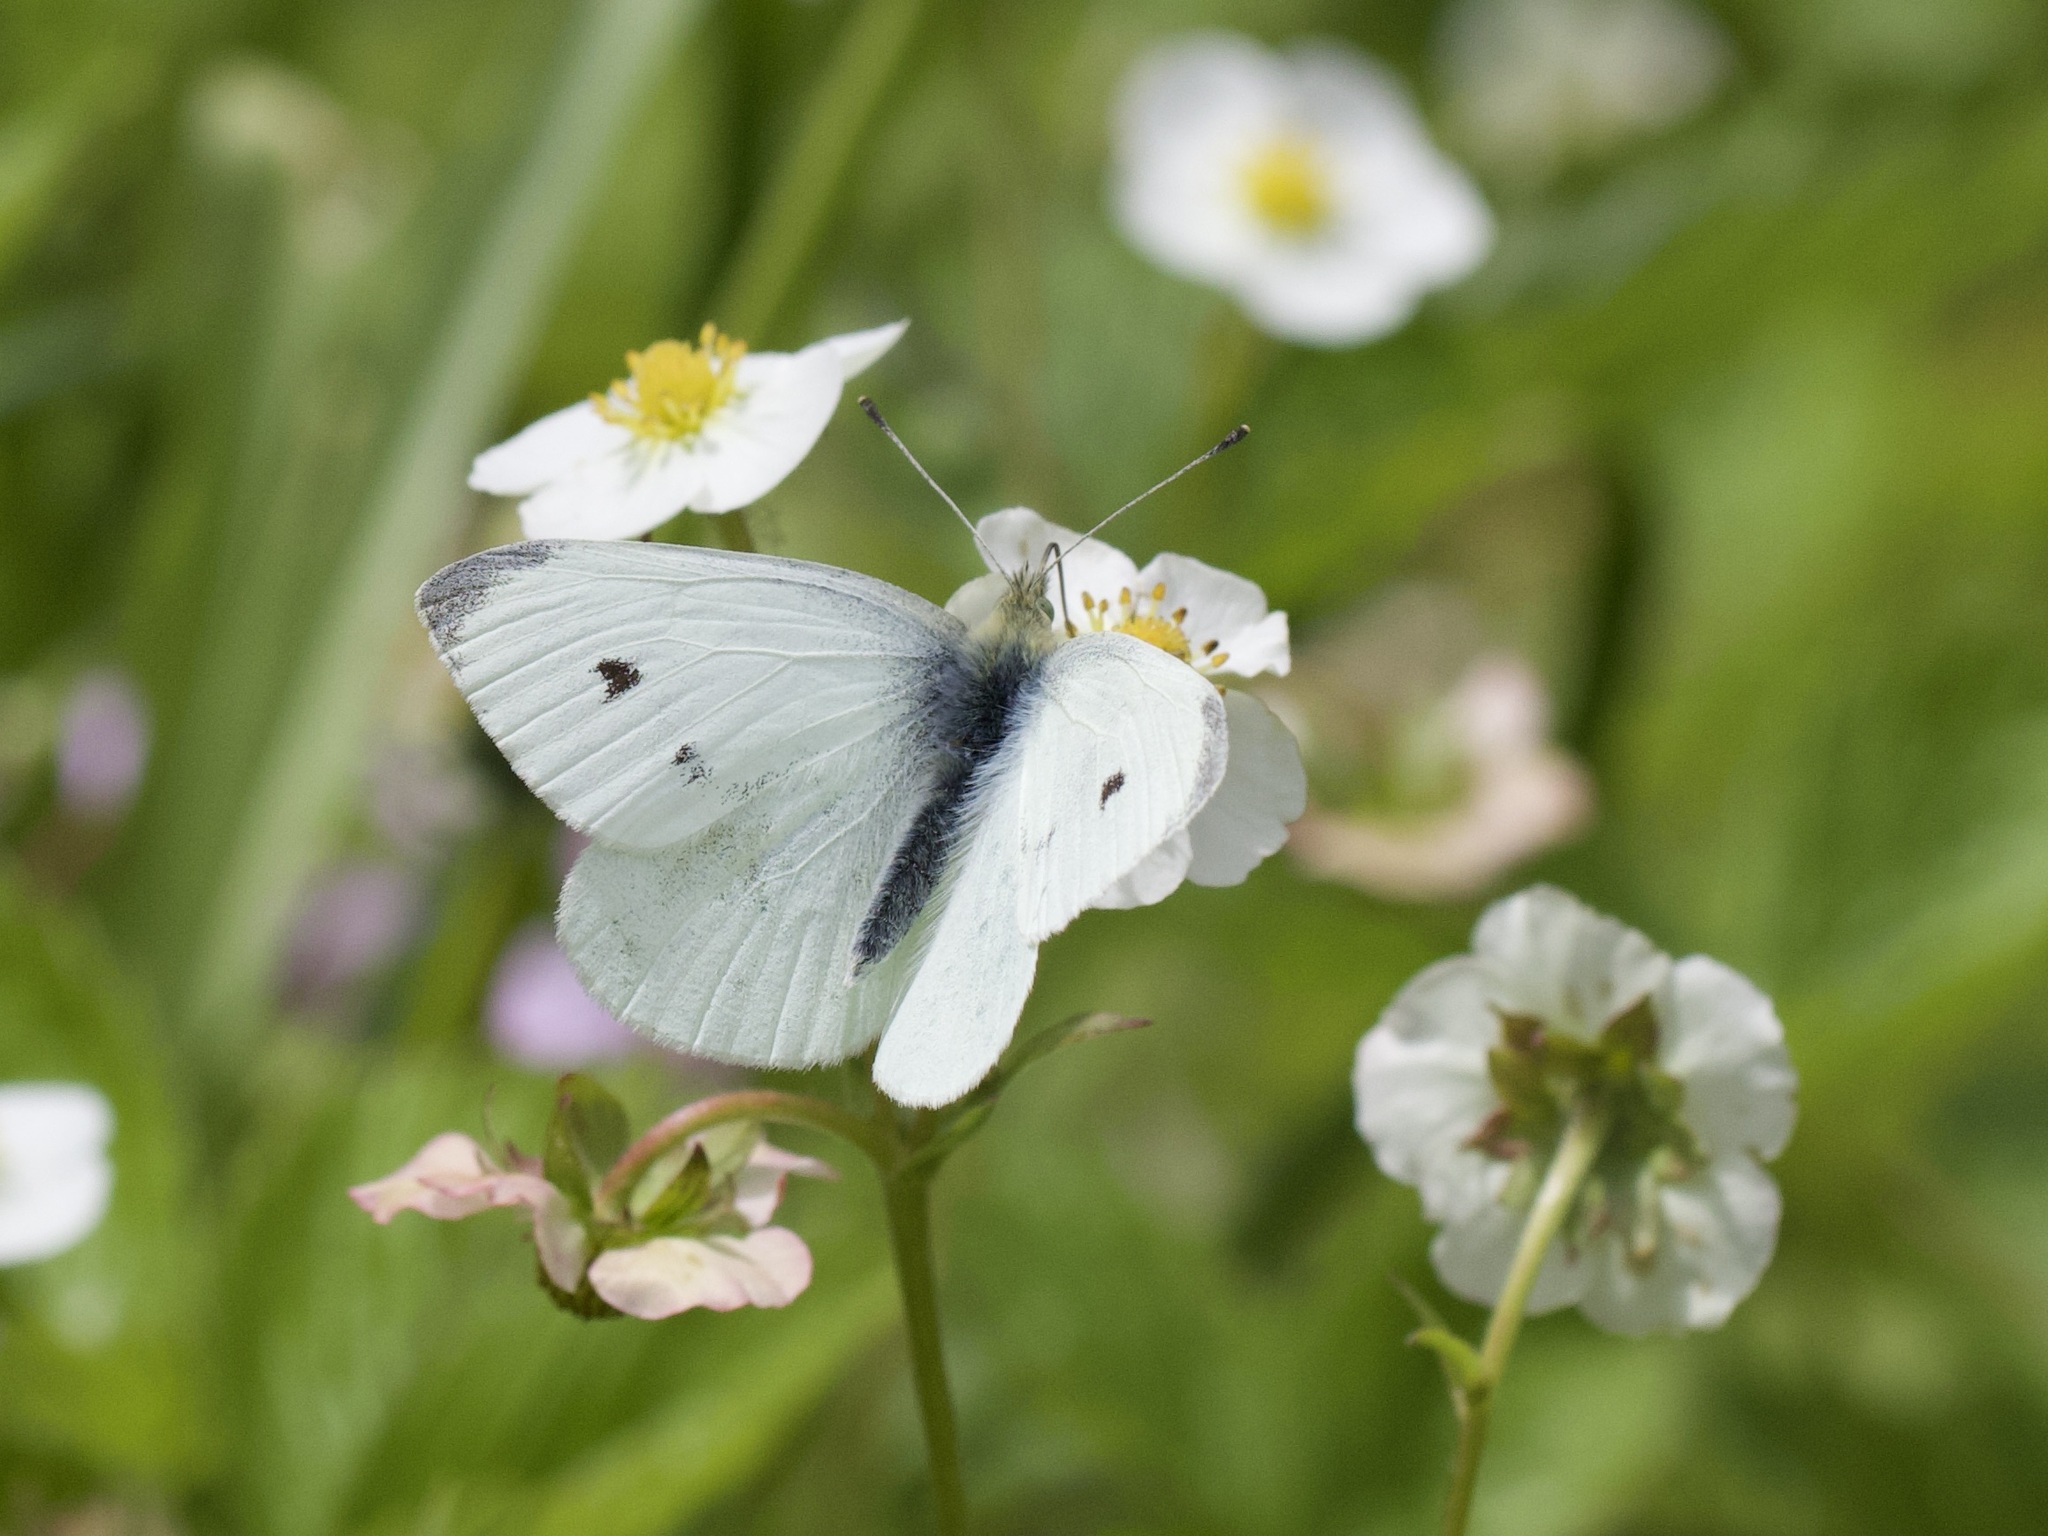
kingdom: Animalia
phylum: Arthropoda
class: Insecta
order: Lepidoptera
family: Pieridae
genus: Pieris
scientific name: Pieris rapae
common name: Small white
